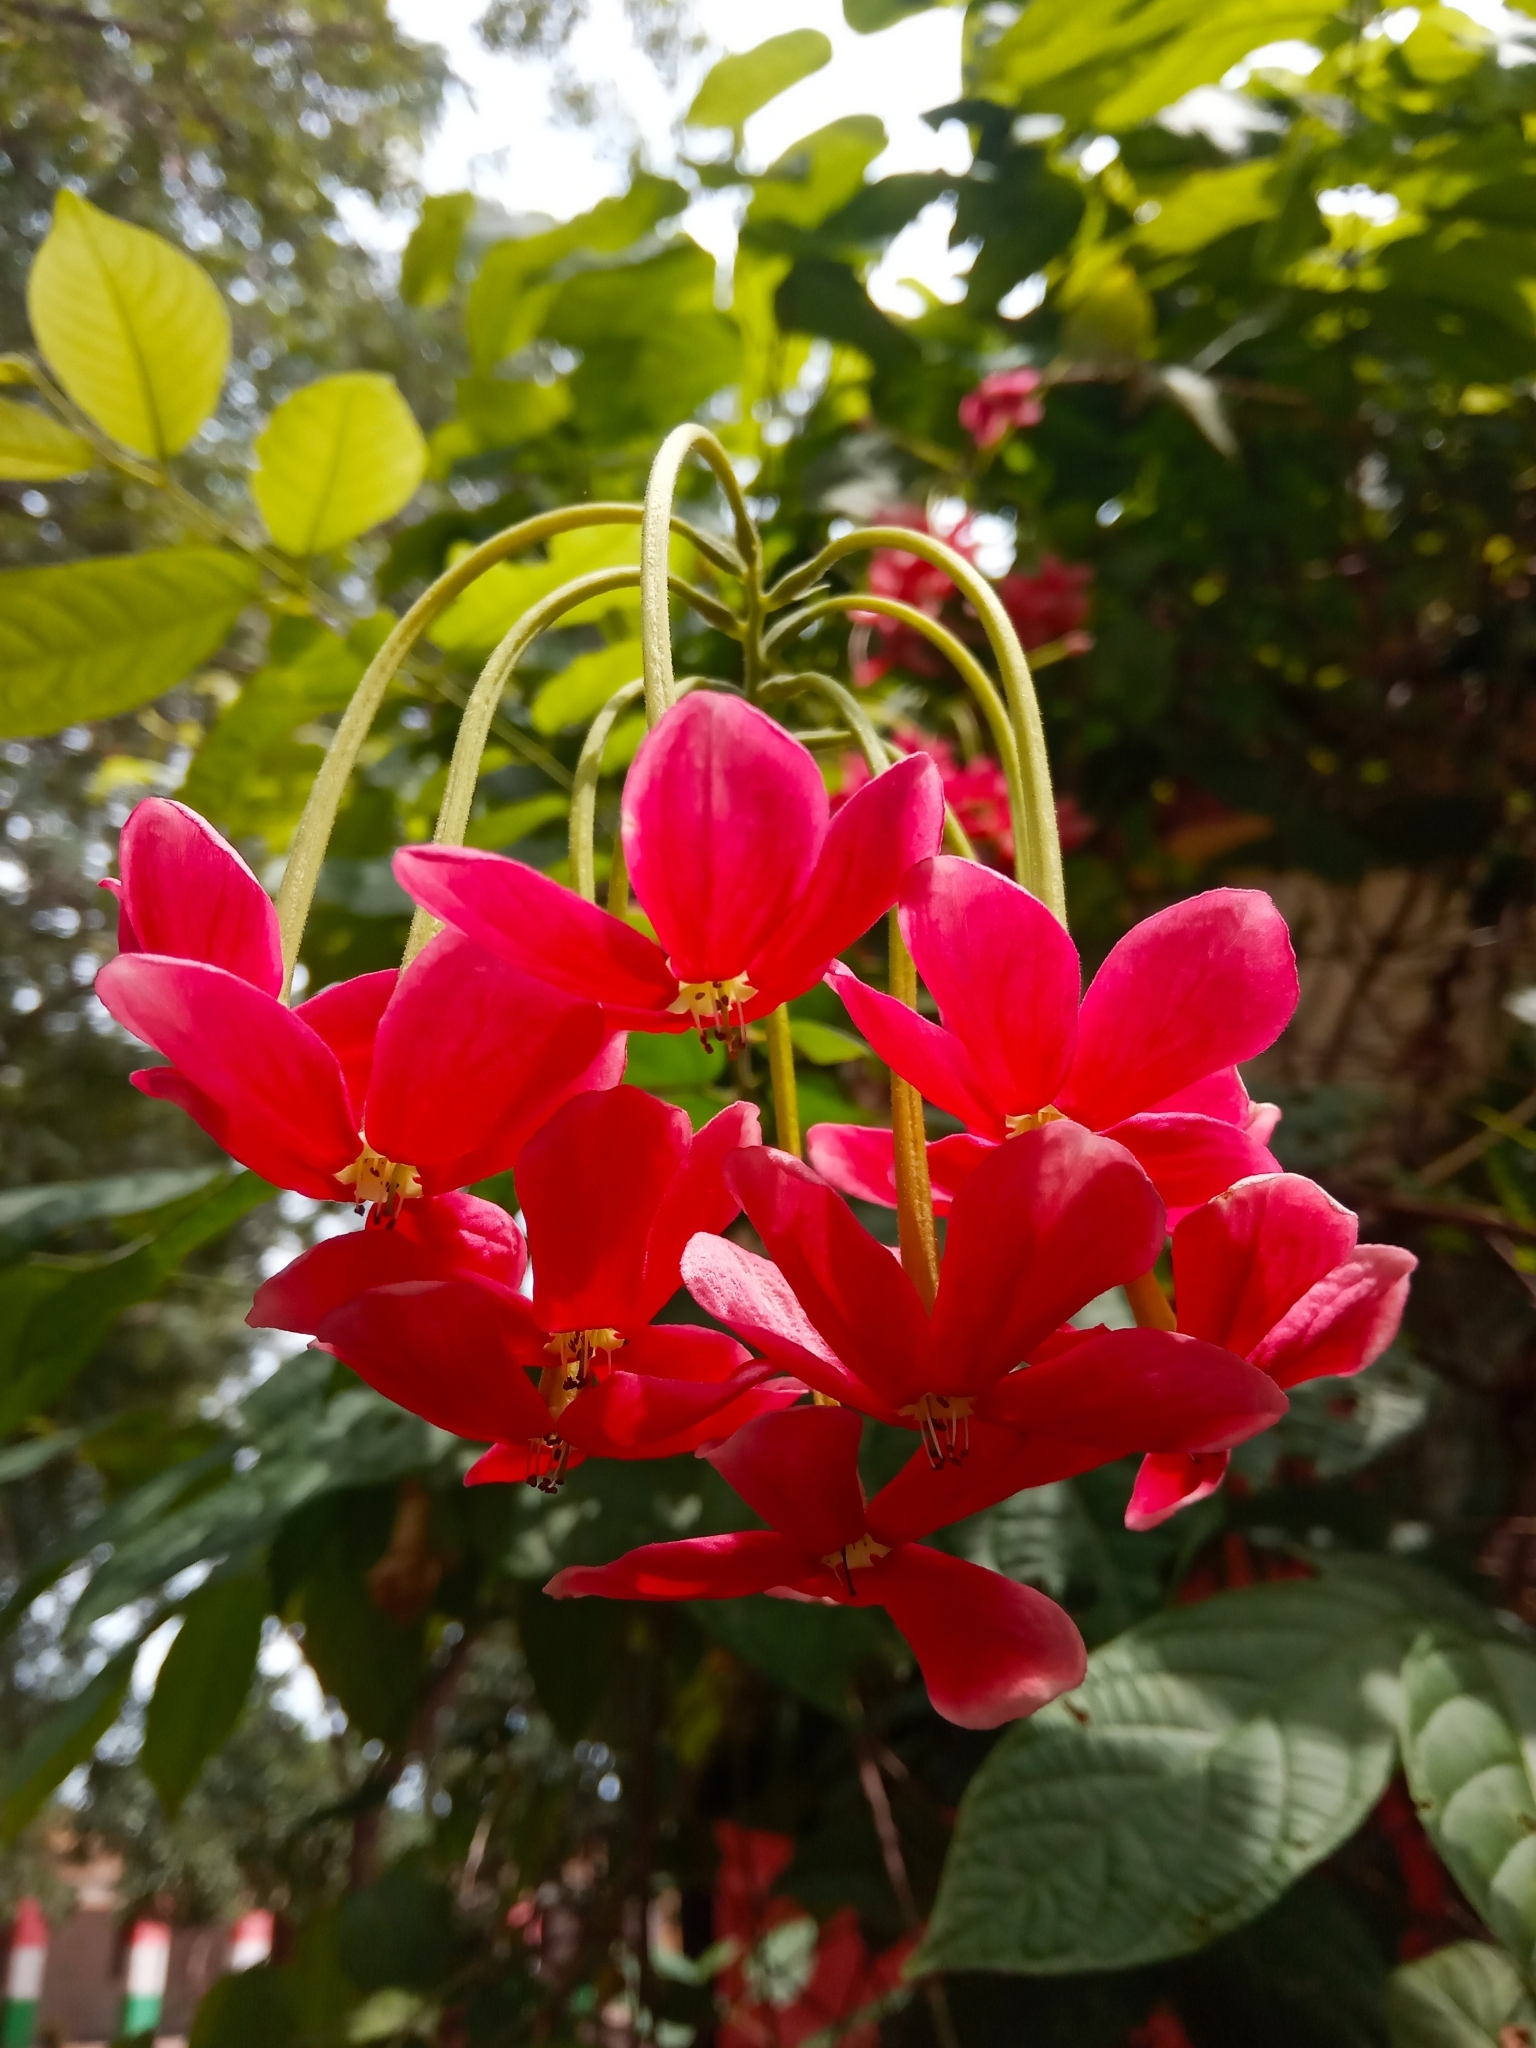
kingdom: Plantae
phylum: Tracheophyta
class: Magnoliopsida
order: Myrtales
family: Combretaceae
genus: Combretum
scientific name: Combretum indicum
